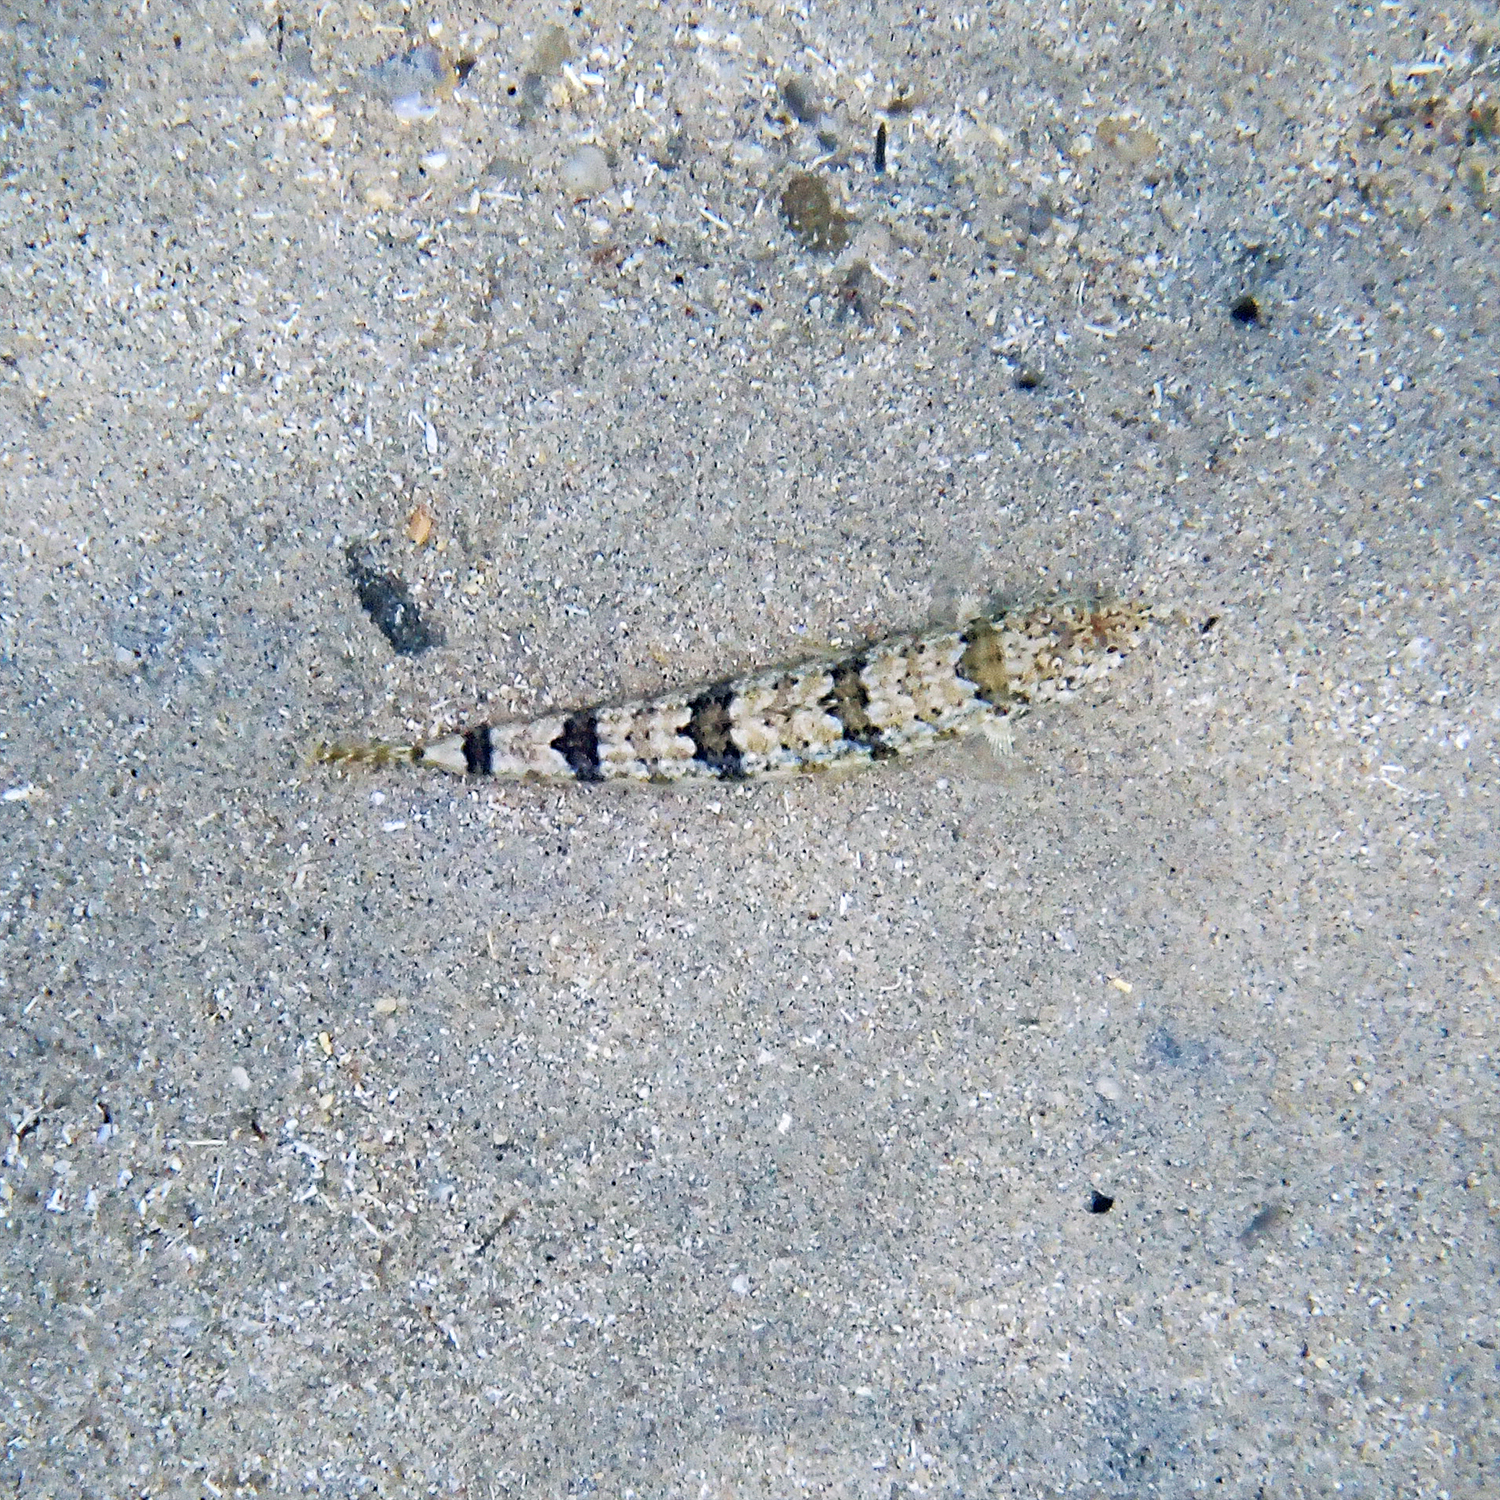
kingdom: Animalia
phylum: Chordata
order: Aulopiformes
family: Synodontidae
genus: Synodus
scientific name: Synodus dermatogenys
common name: Banded lizardfish
